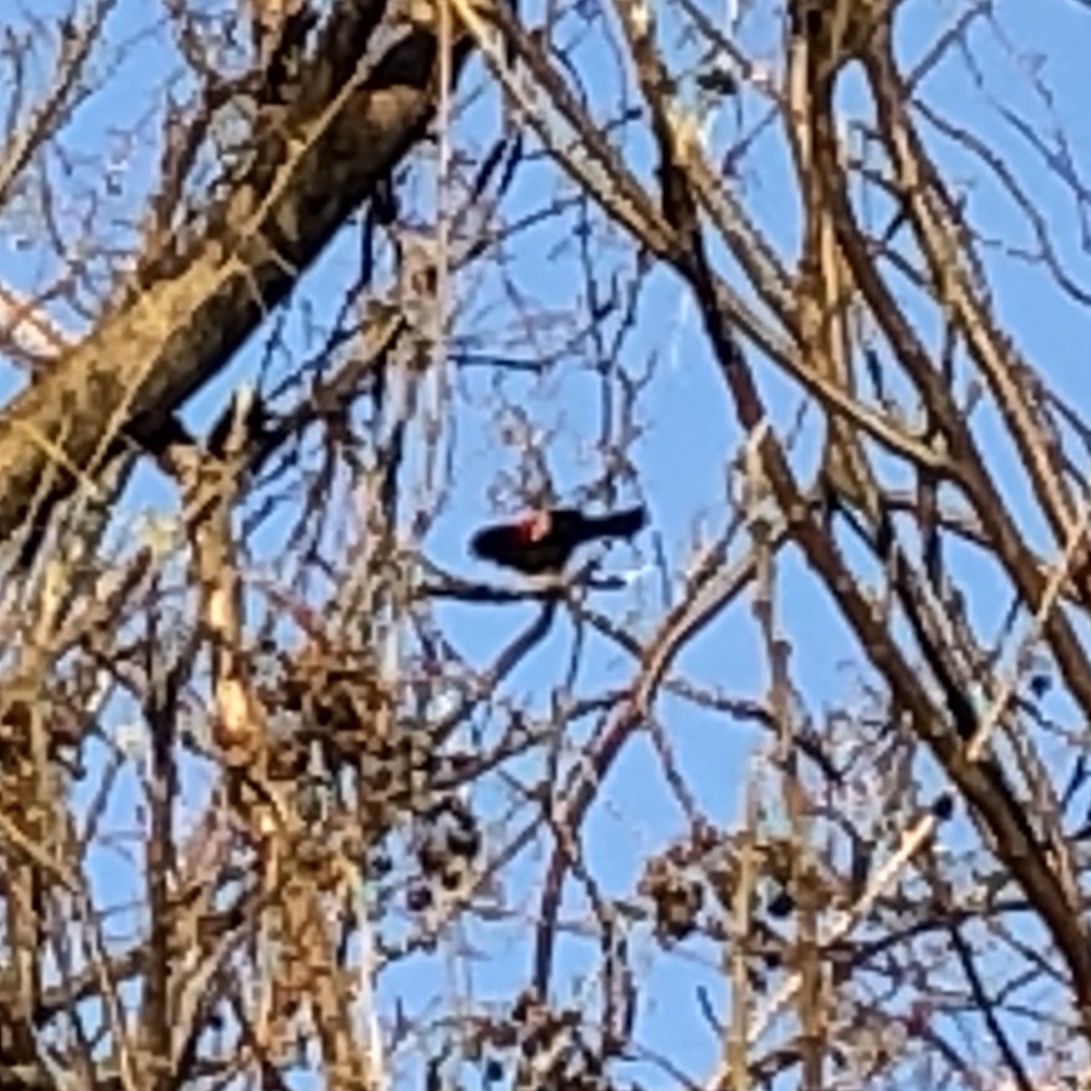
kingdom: Animalia
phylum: Chordata
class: Aves
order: Passeriformes
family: Icteridae
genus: Agelaius
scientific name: Agelaius phoeniceus
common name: Red-winged blackbird
